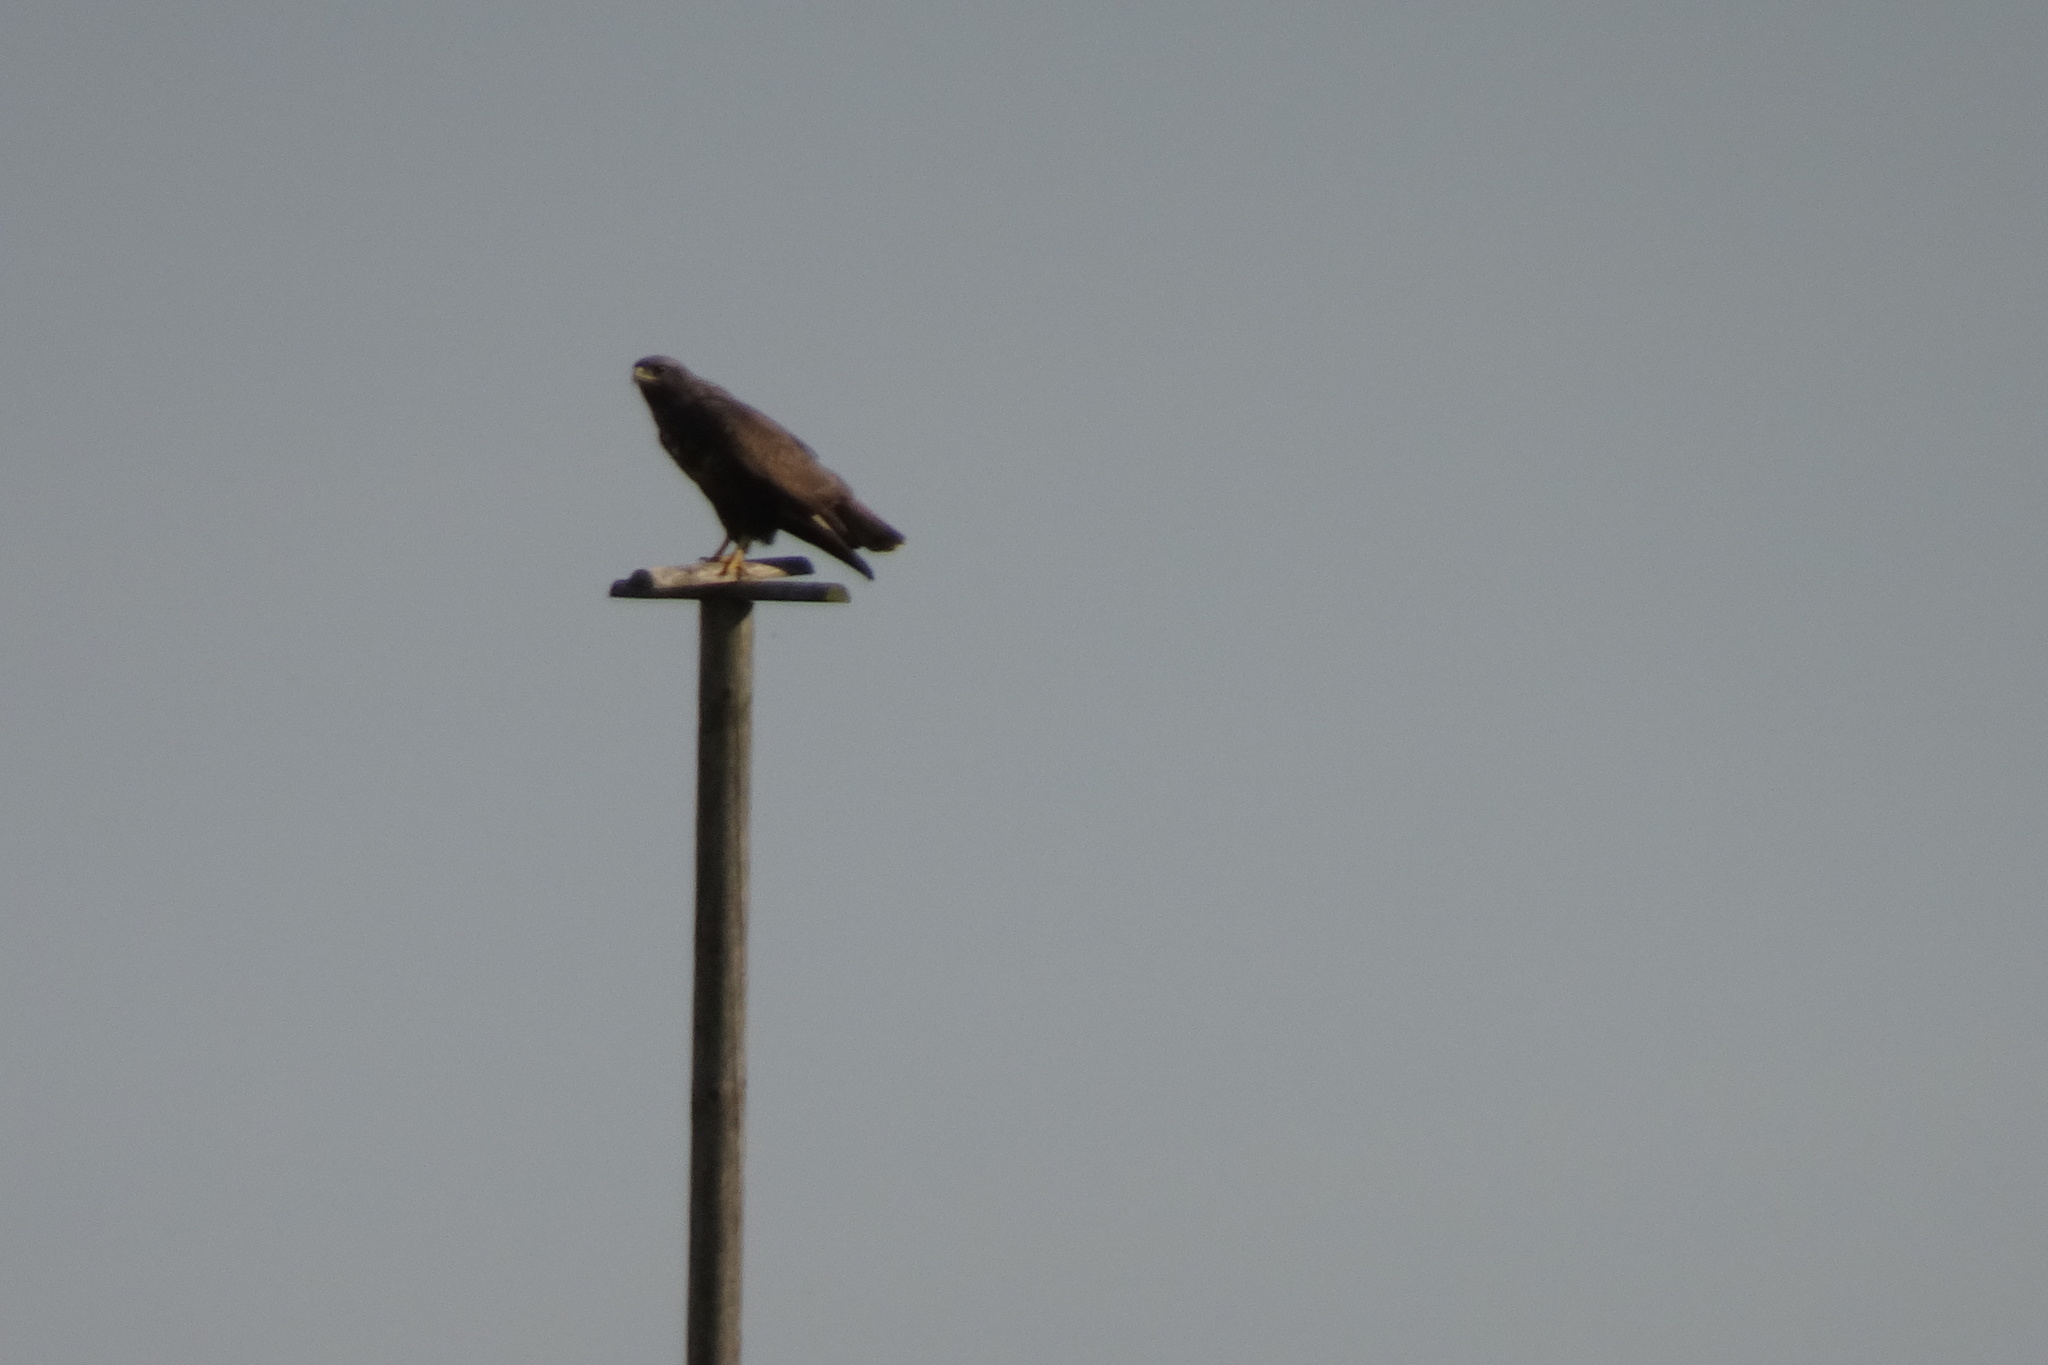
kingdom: Animalia
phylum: Chordata
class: Aves
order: Accipitriformes
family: Accipitridae
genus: Buteo
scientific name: Buteo buteo
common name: Common buzzard
